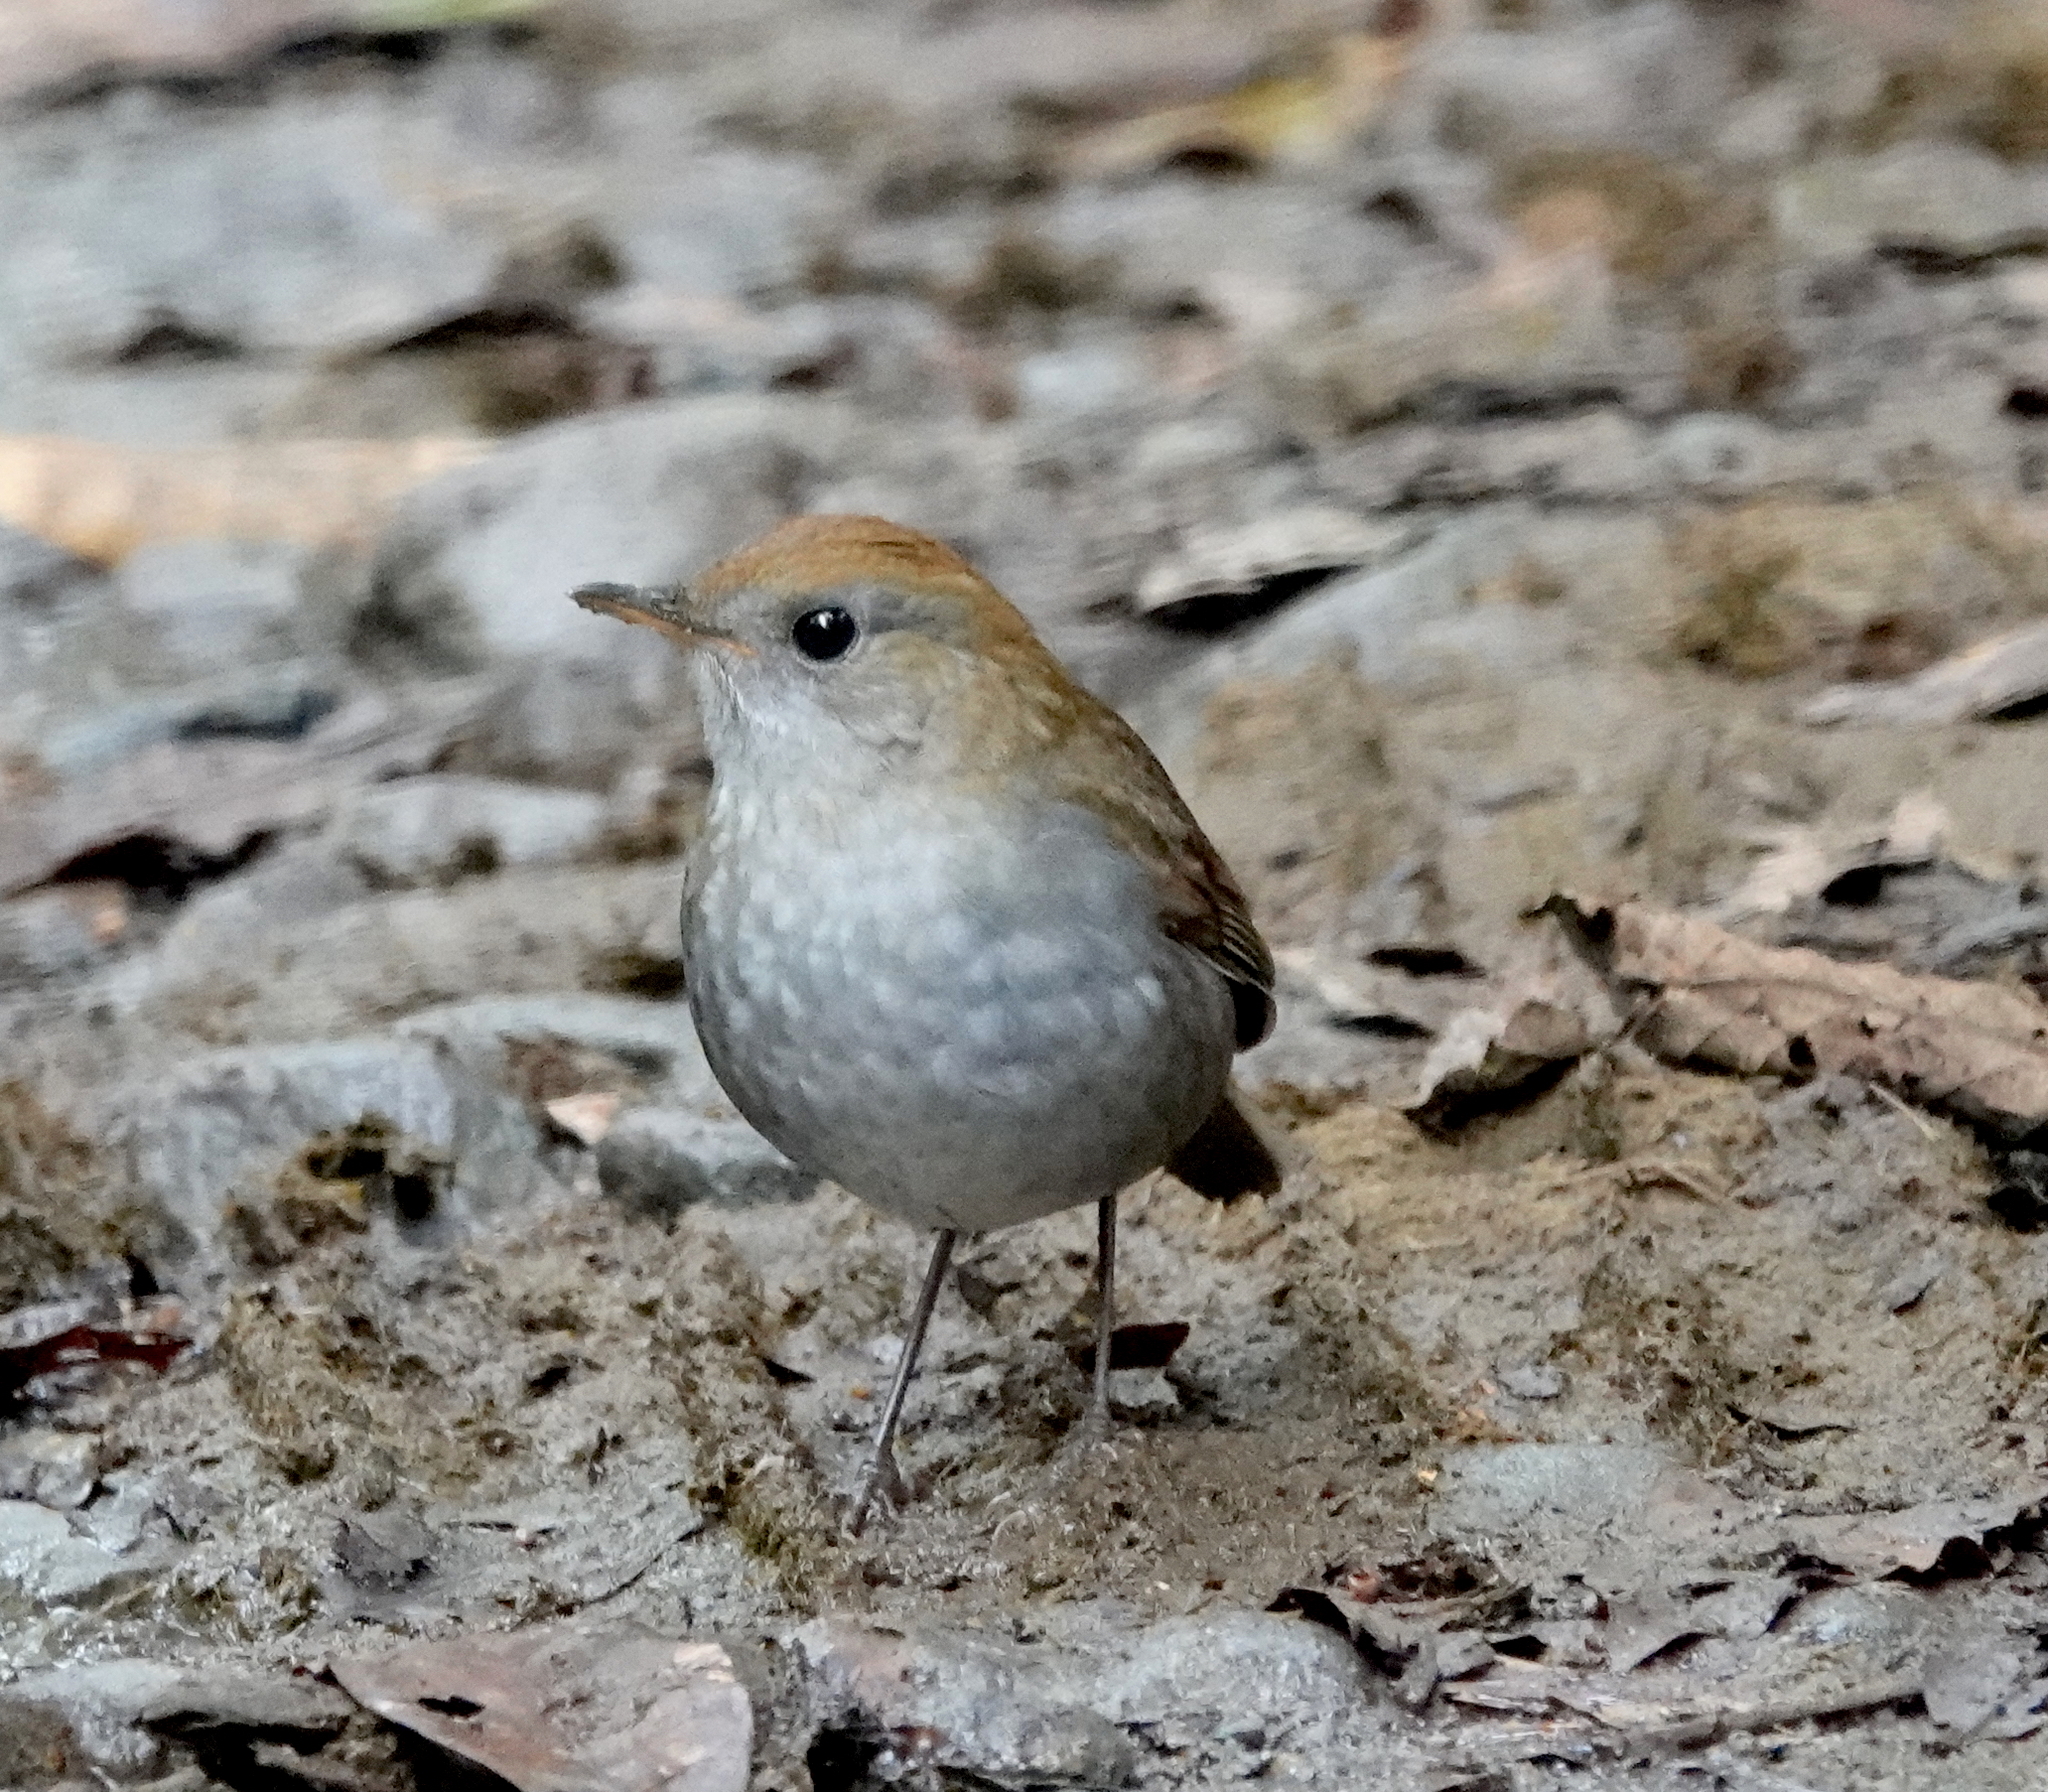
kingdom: Animalia
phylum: Chordata
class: Aves
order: Passeriformes
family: Turdidae
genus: Catharus
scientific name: Catharus frantzii
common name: Ruddy-capped nightingale-thrush
